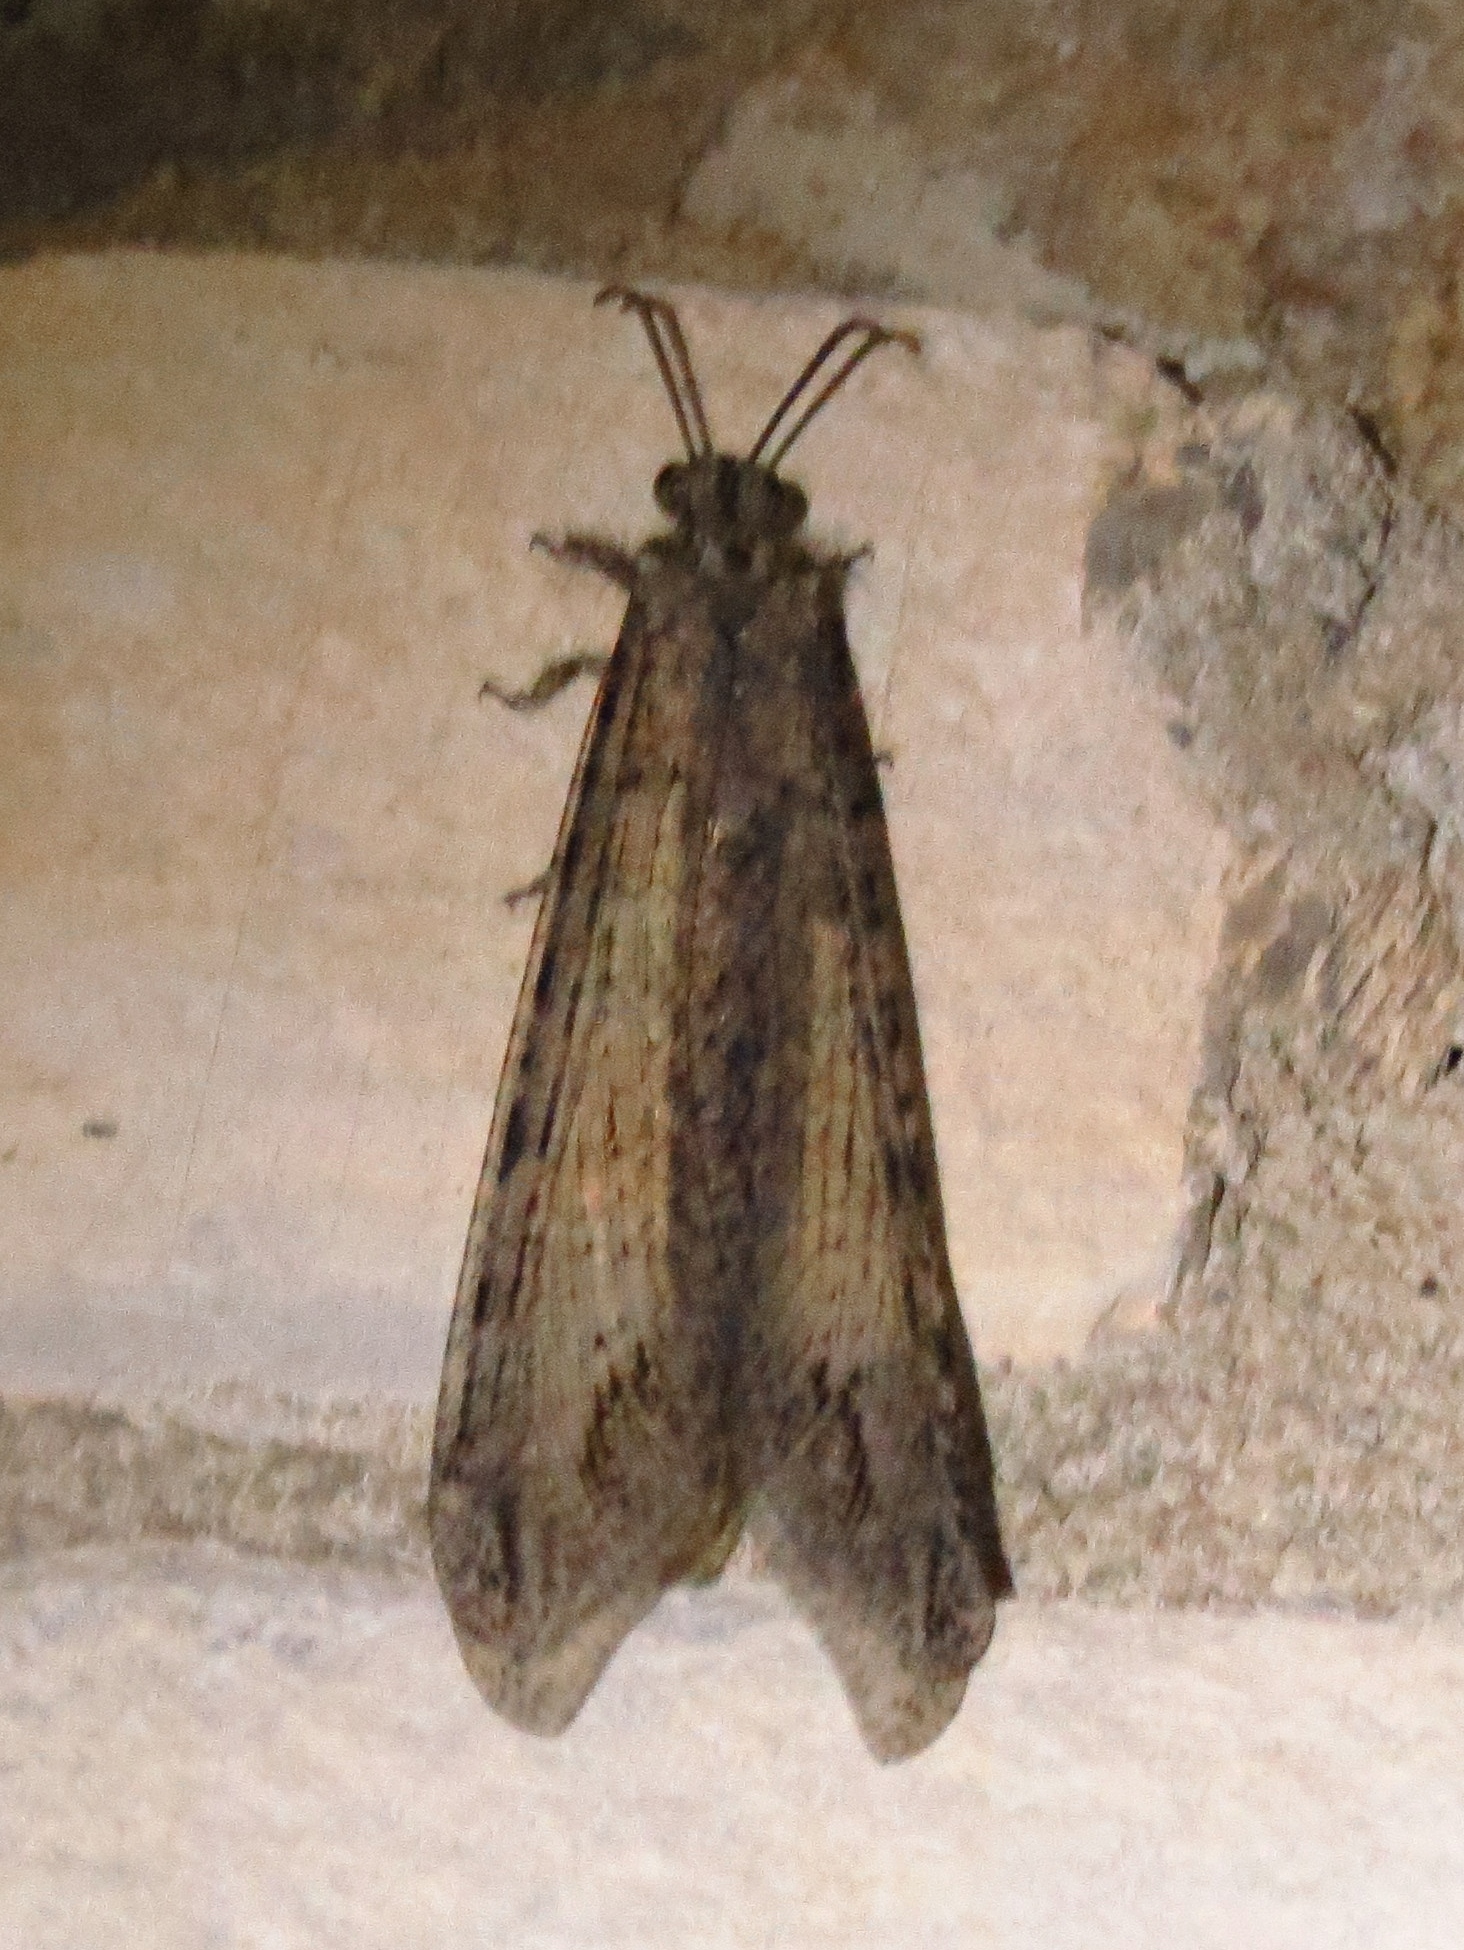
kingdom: Animalia
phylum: Arthropoda
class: Insecta
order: Neuroptera
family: Myrmeleontidae
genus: Vella
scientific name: Vella fallax
